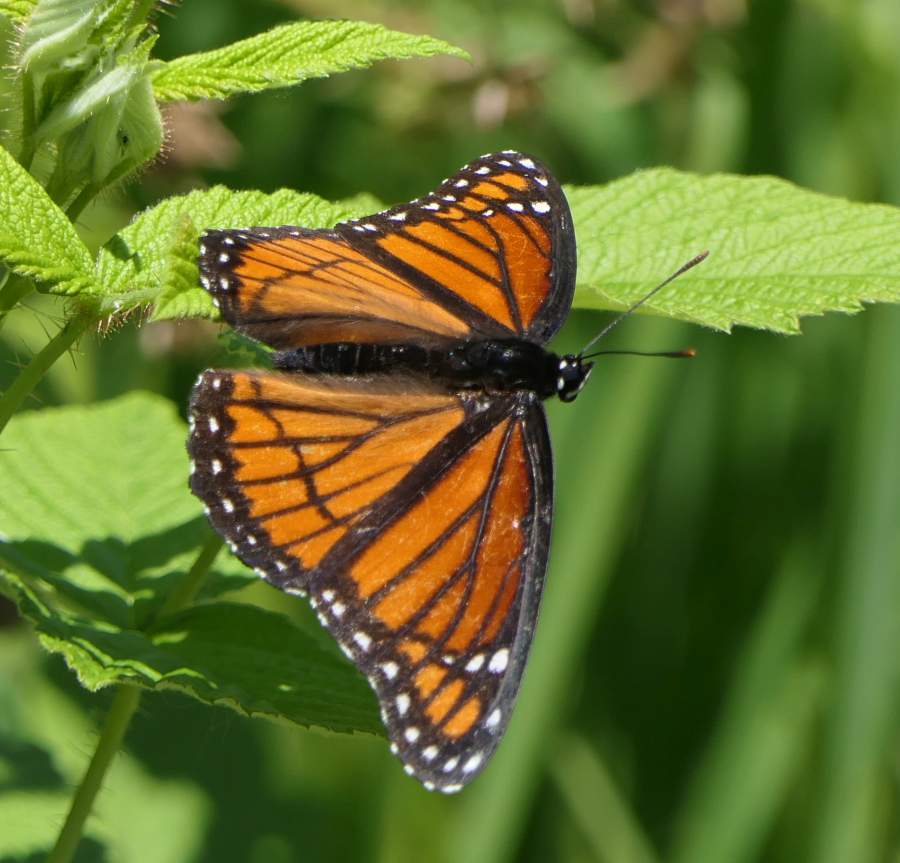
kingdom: Animalia
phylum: Arthropoda
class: Insecta
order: Lepidoptera
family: Nymphalidae
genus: Limenitis
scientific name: Limenitis archippus
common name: Viceroy
